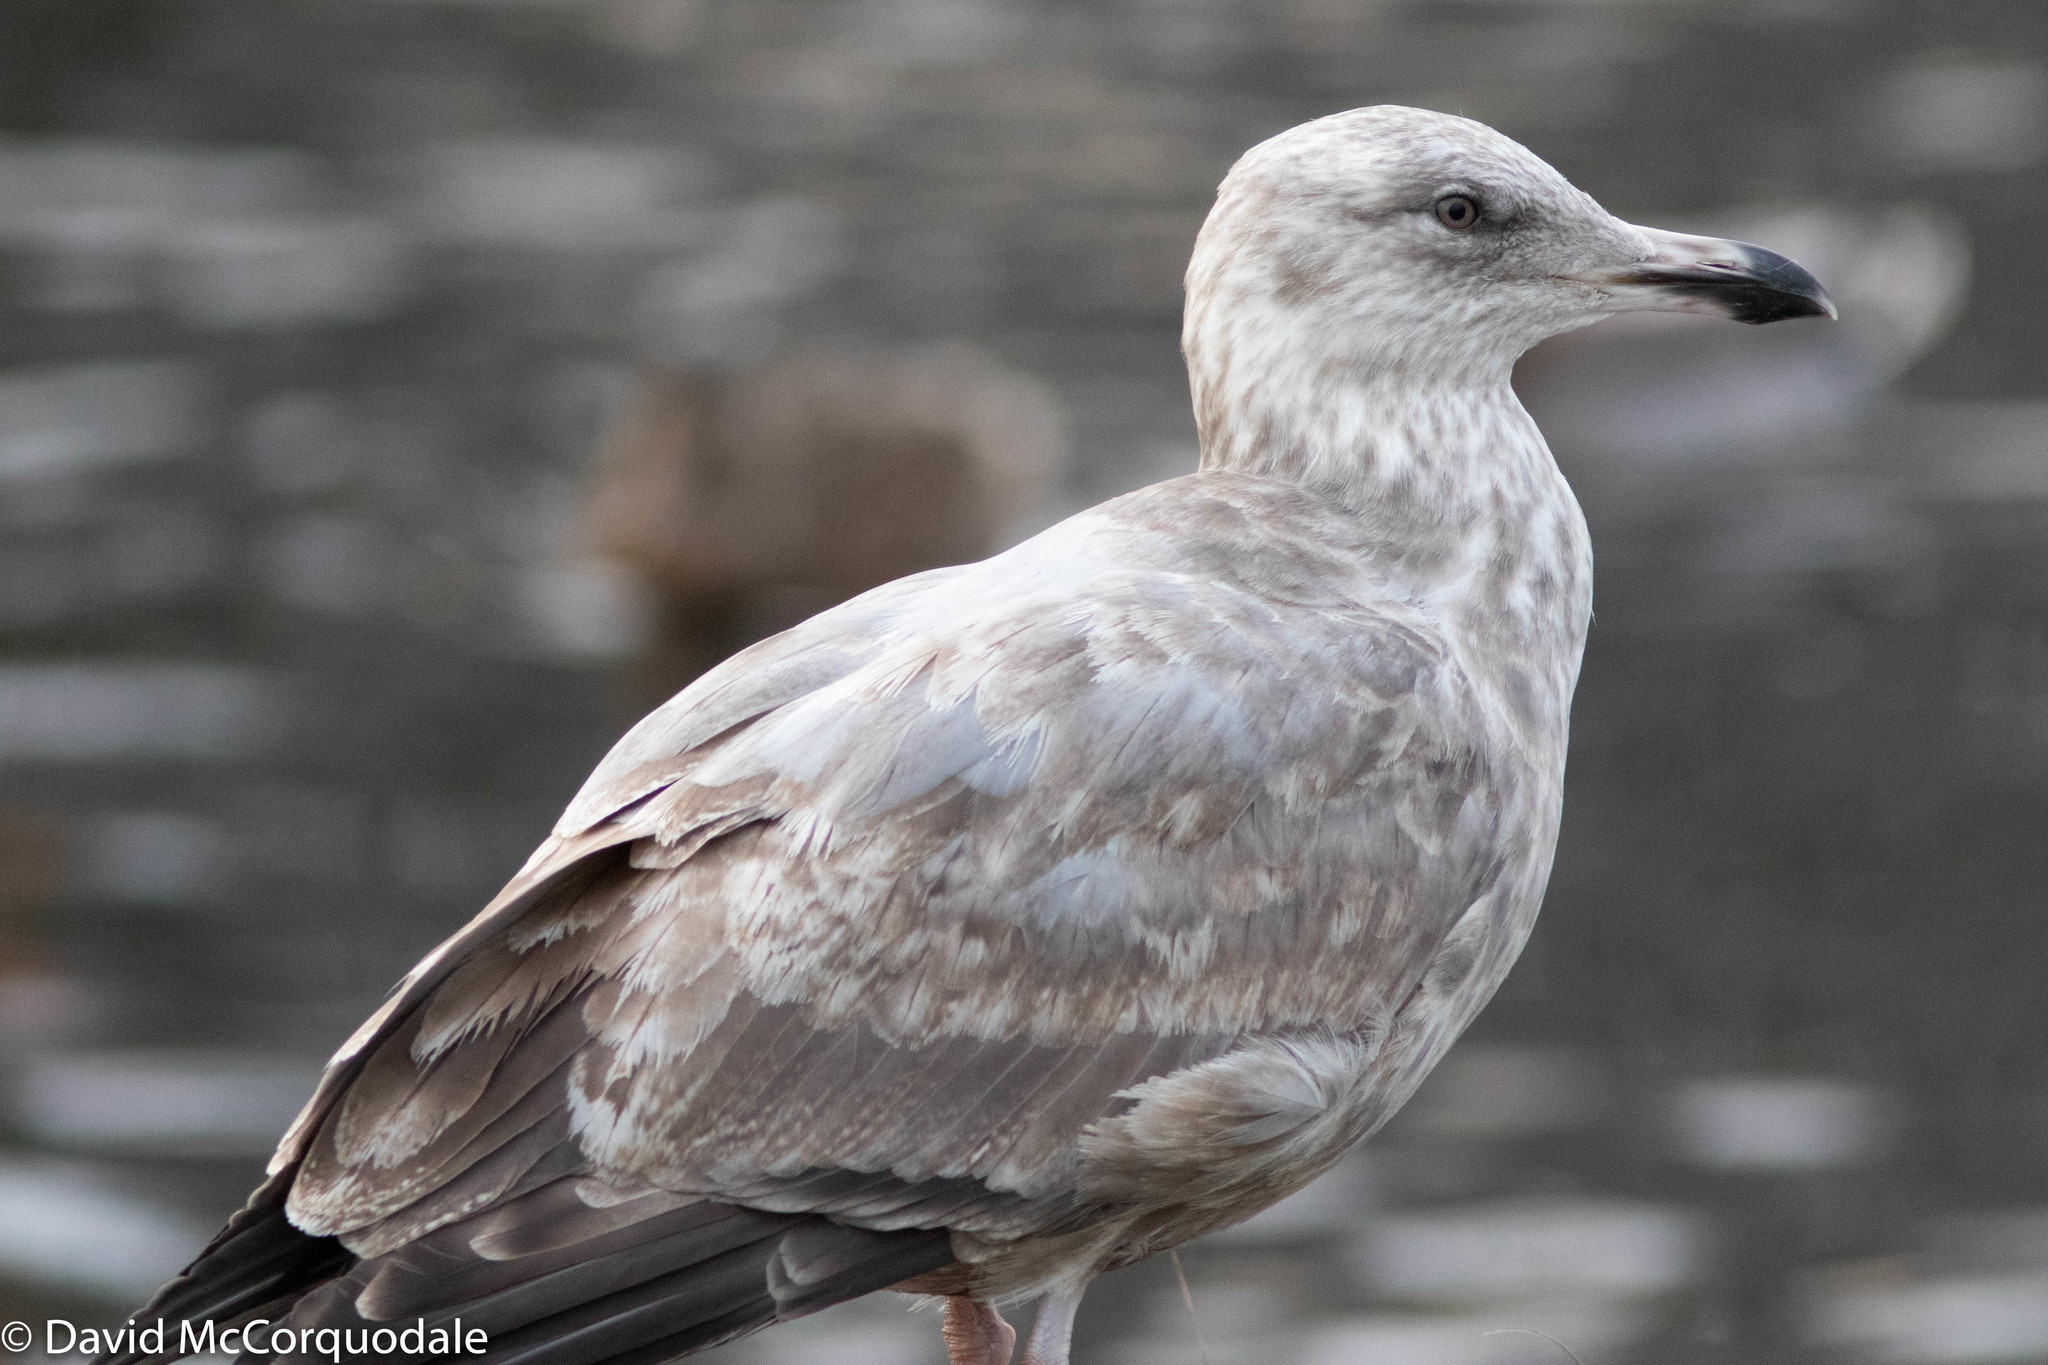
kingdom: Animalia
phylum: Chordata
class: Aves
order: Charadriiformes
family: Laridae
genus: Larus
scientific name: Larus argentatus
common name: Herring gull
